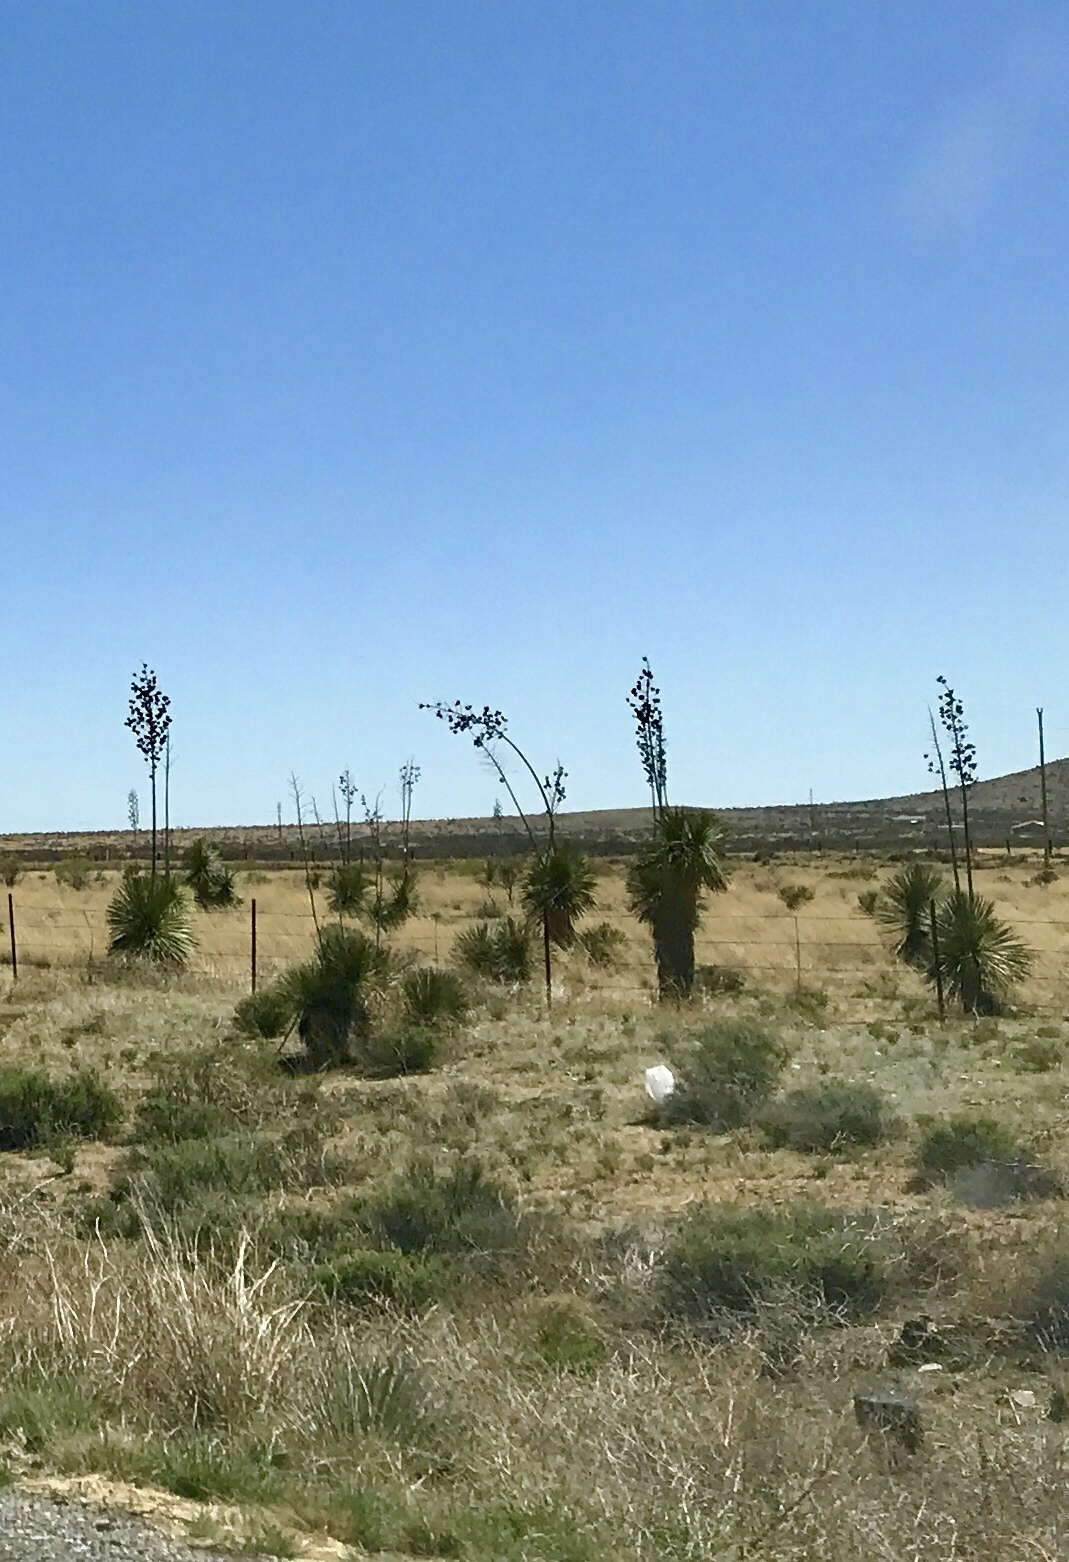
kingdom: Plantae
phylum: Tracheophyta
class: Liliopsida
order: Asparagales
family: Asparagaceae
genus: Yucca
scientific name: Yucca elata
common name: Palmella
